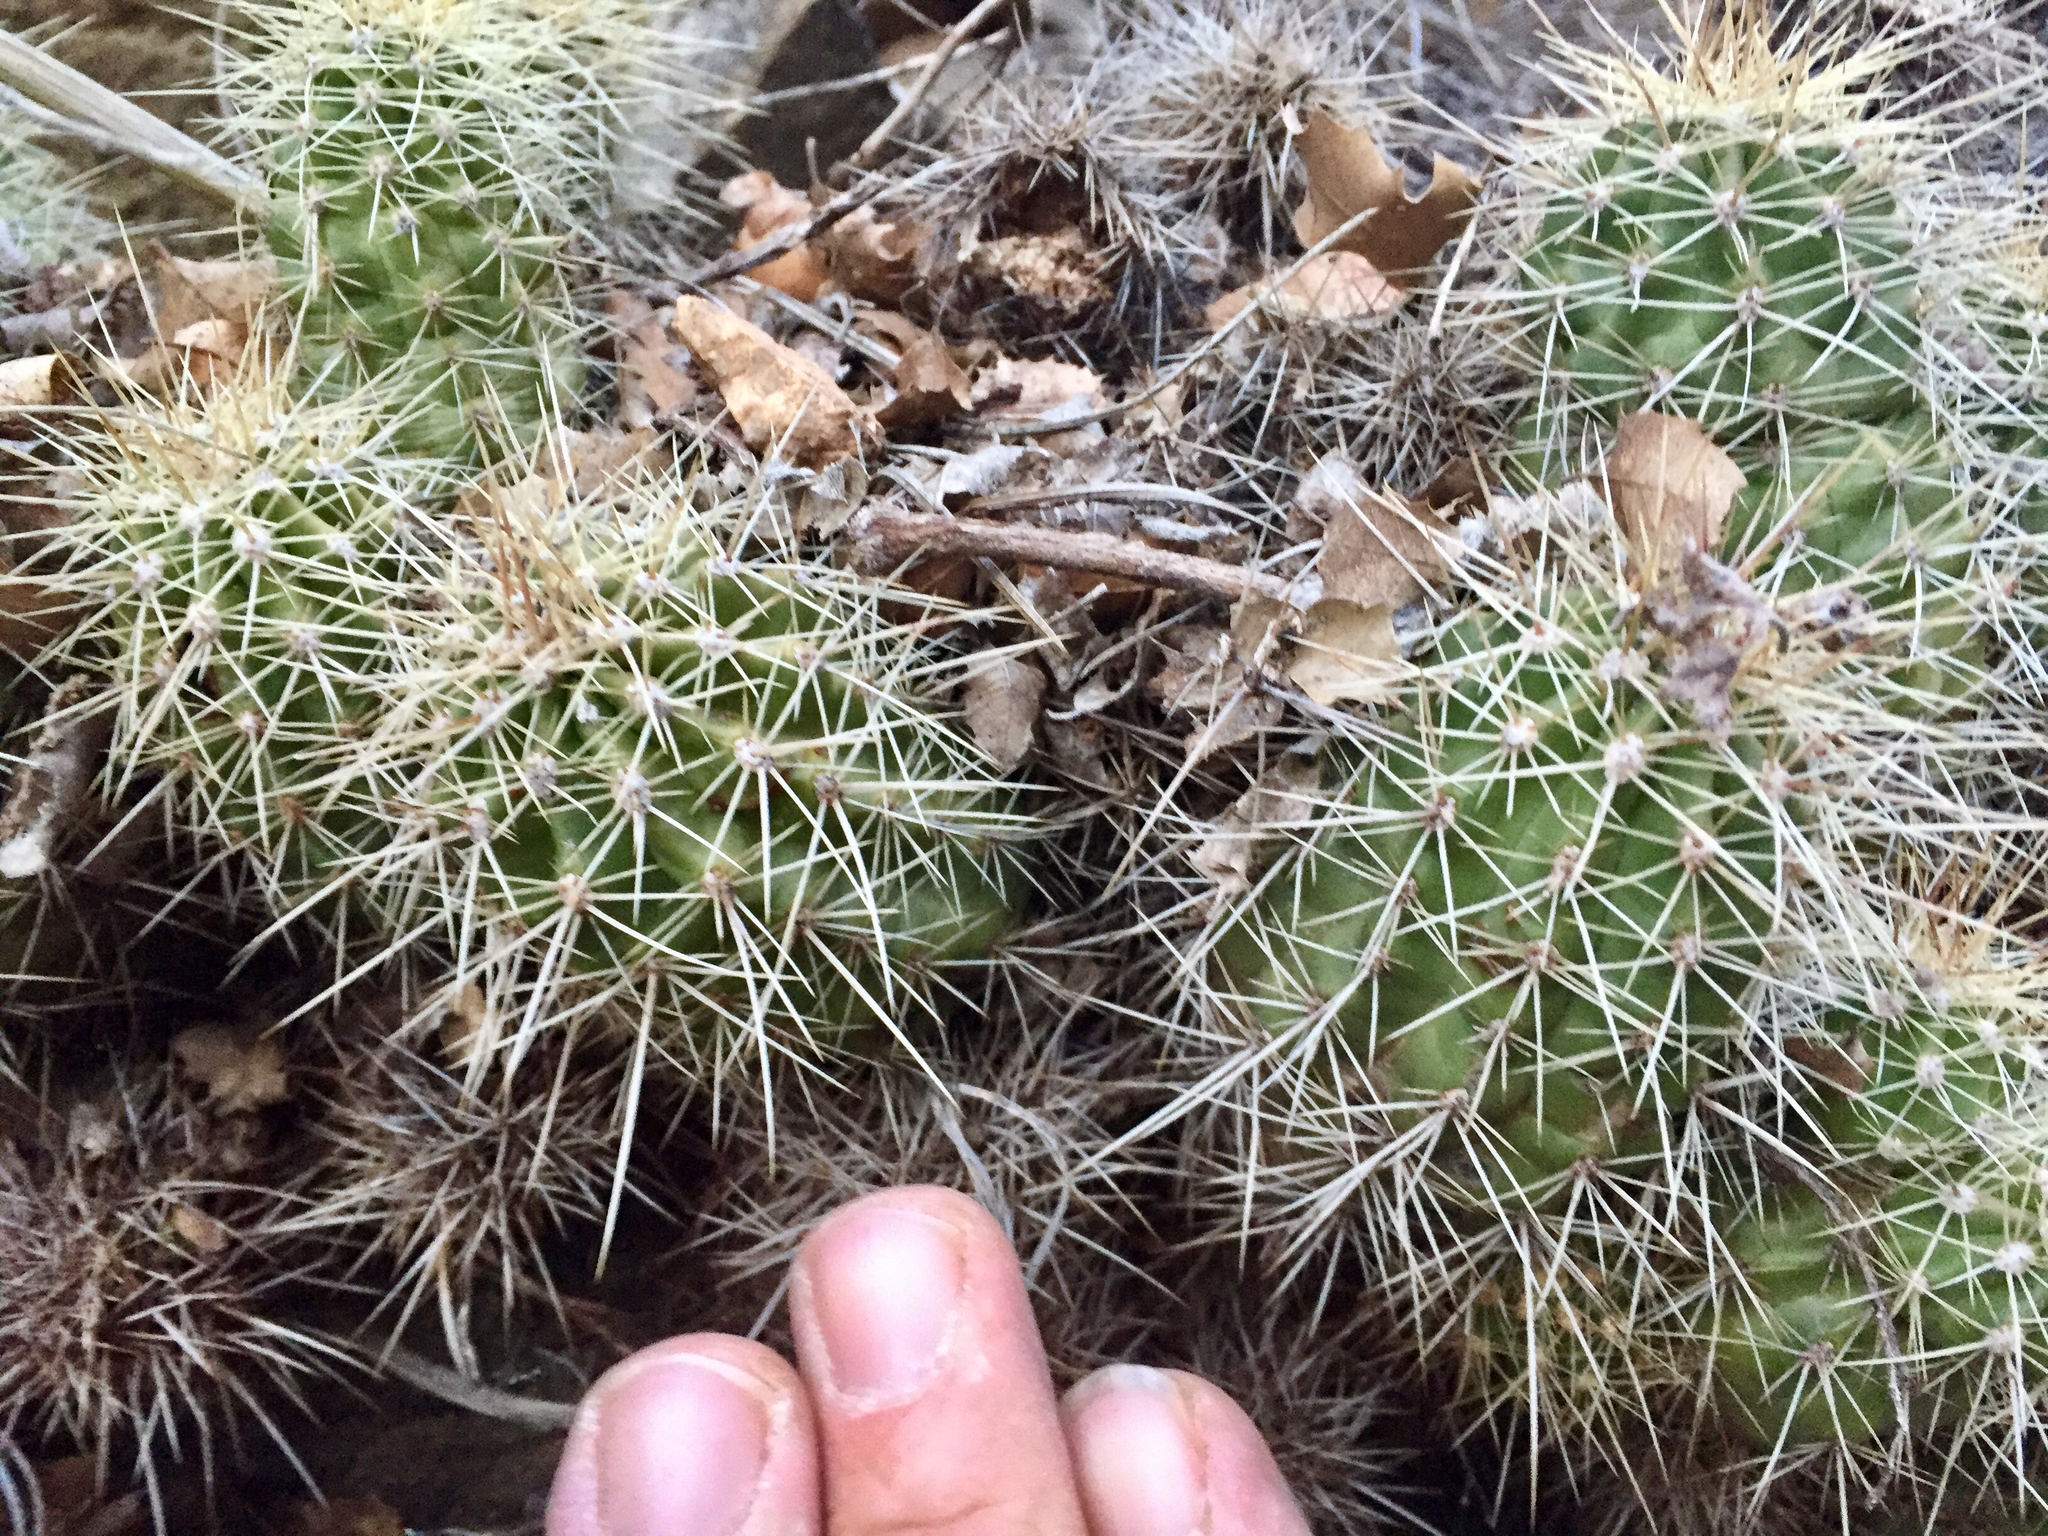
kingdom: Plantae
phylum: Tracheophyta
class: Magnoliopsida
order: Caryophyllales
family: Cactaceae
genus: Echinocereus
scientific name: Echinocereus bakeri
